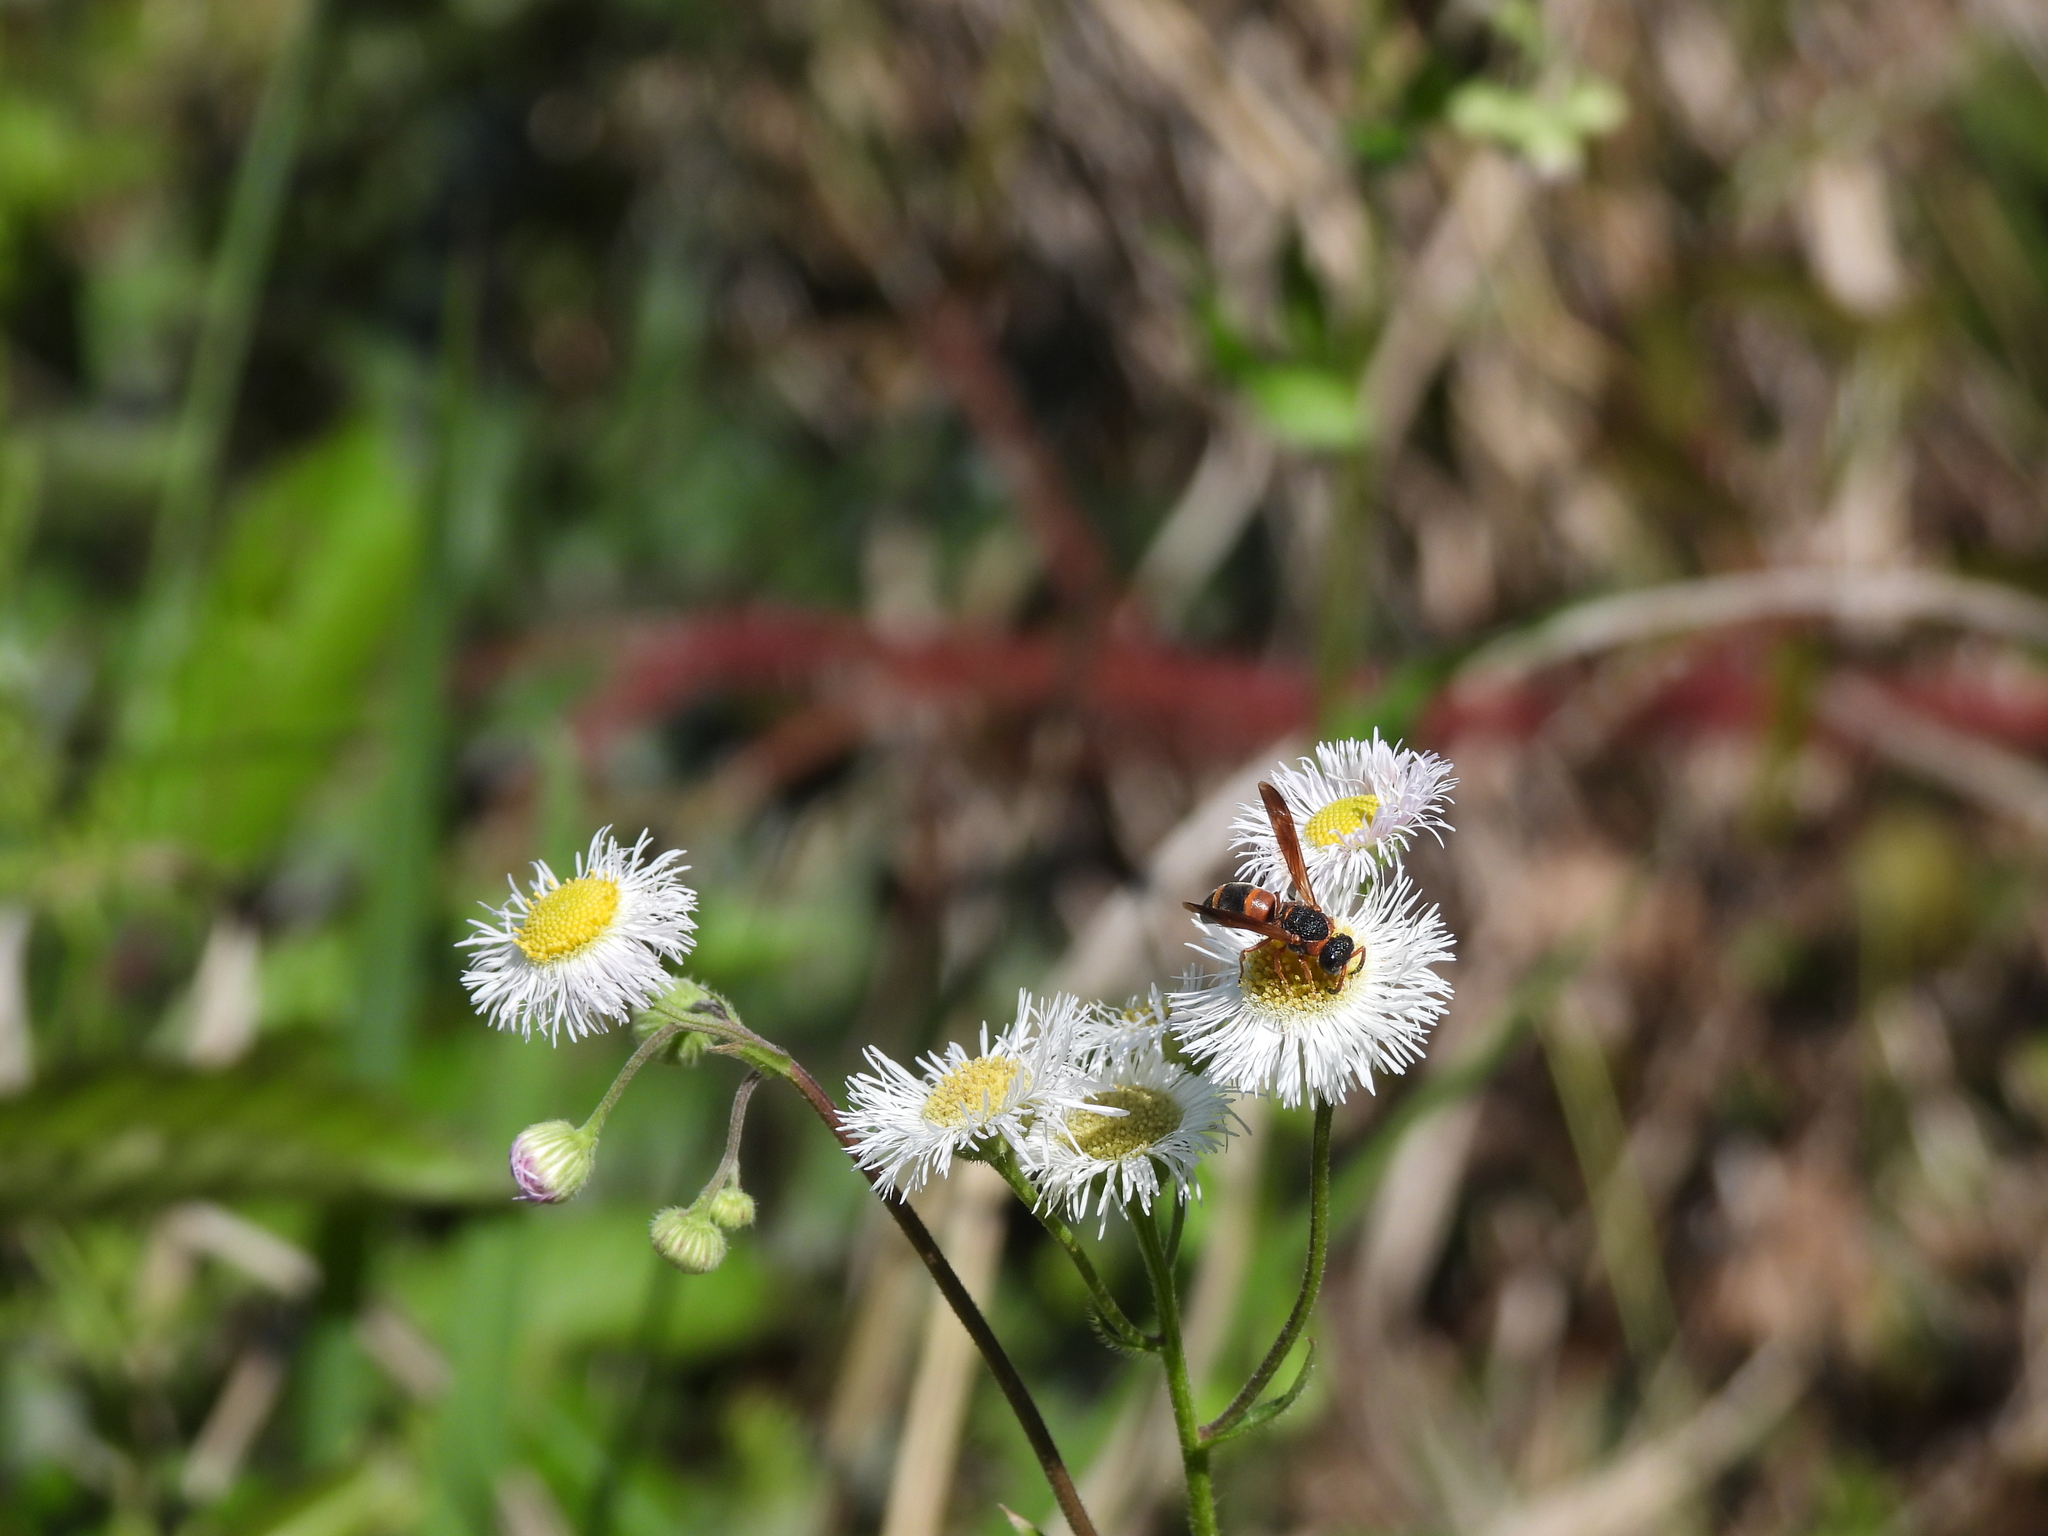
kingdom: Animalia
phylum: Arthropoda
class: Insecta
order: Hymenoptera
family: Eumenidae
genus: Pachodynerus
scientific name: Pachodynerus erynnis
